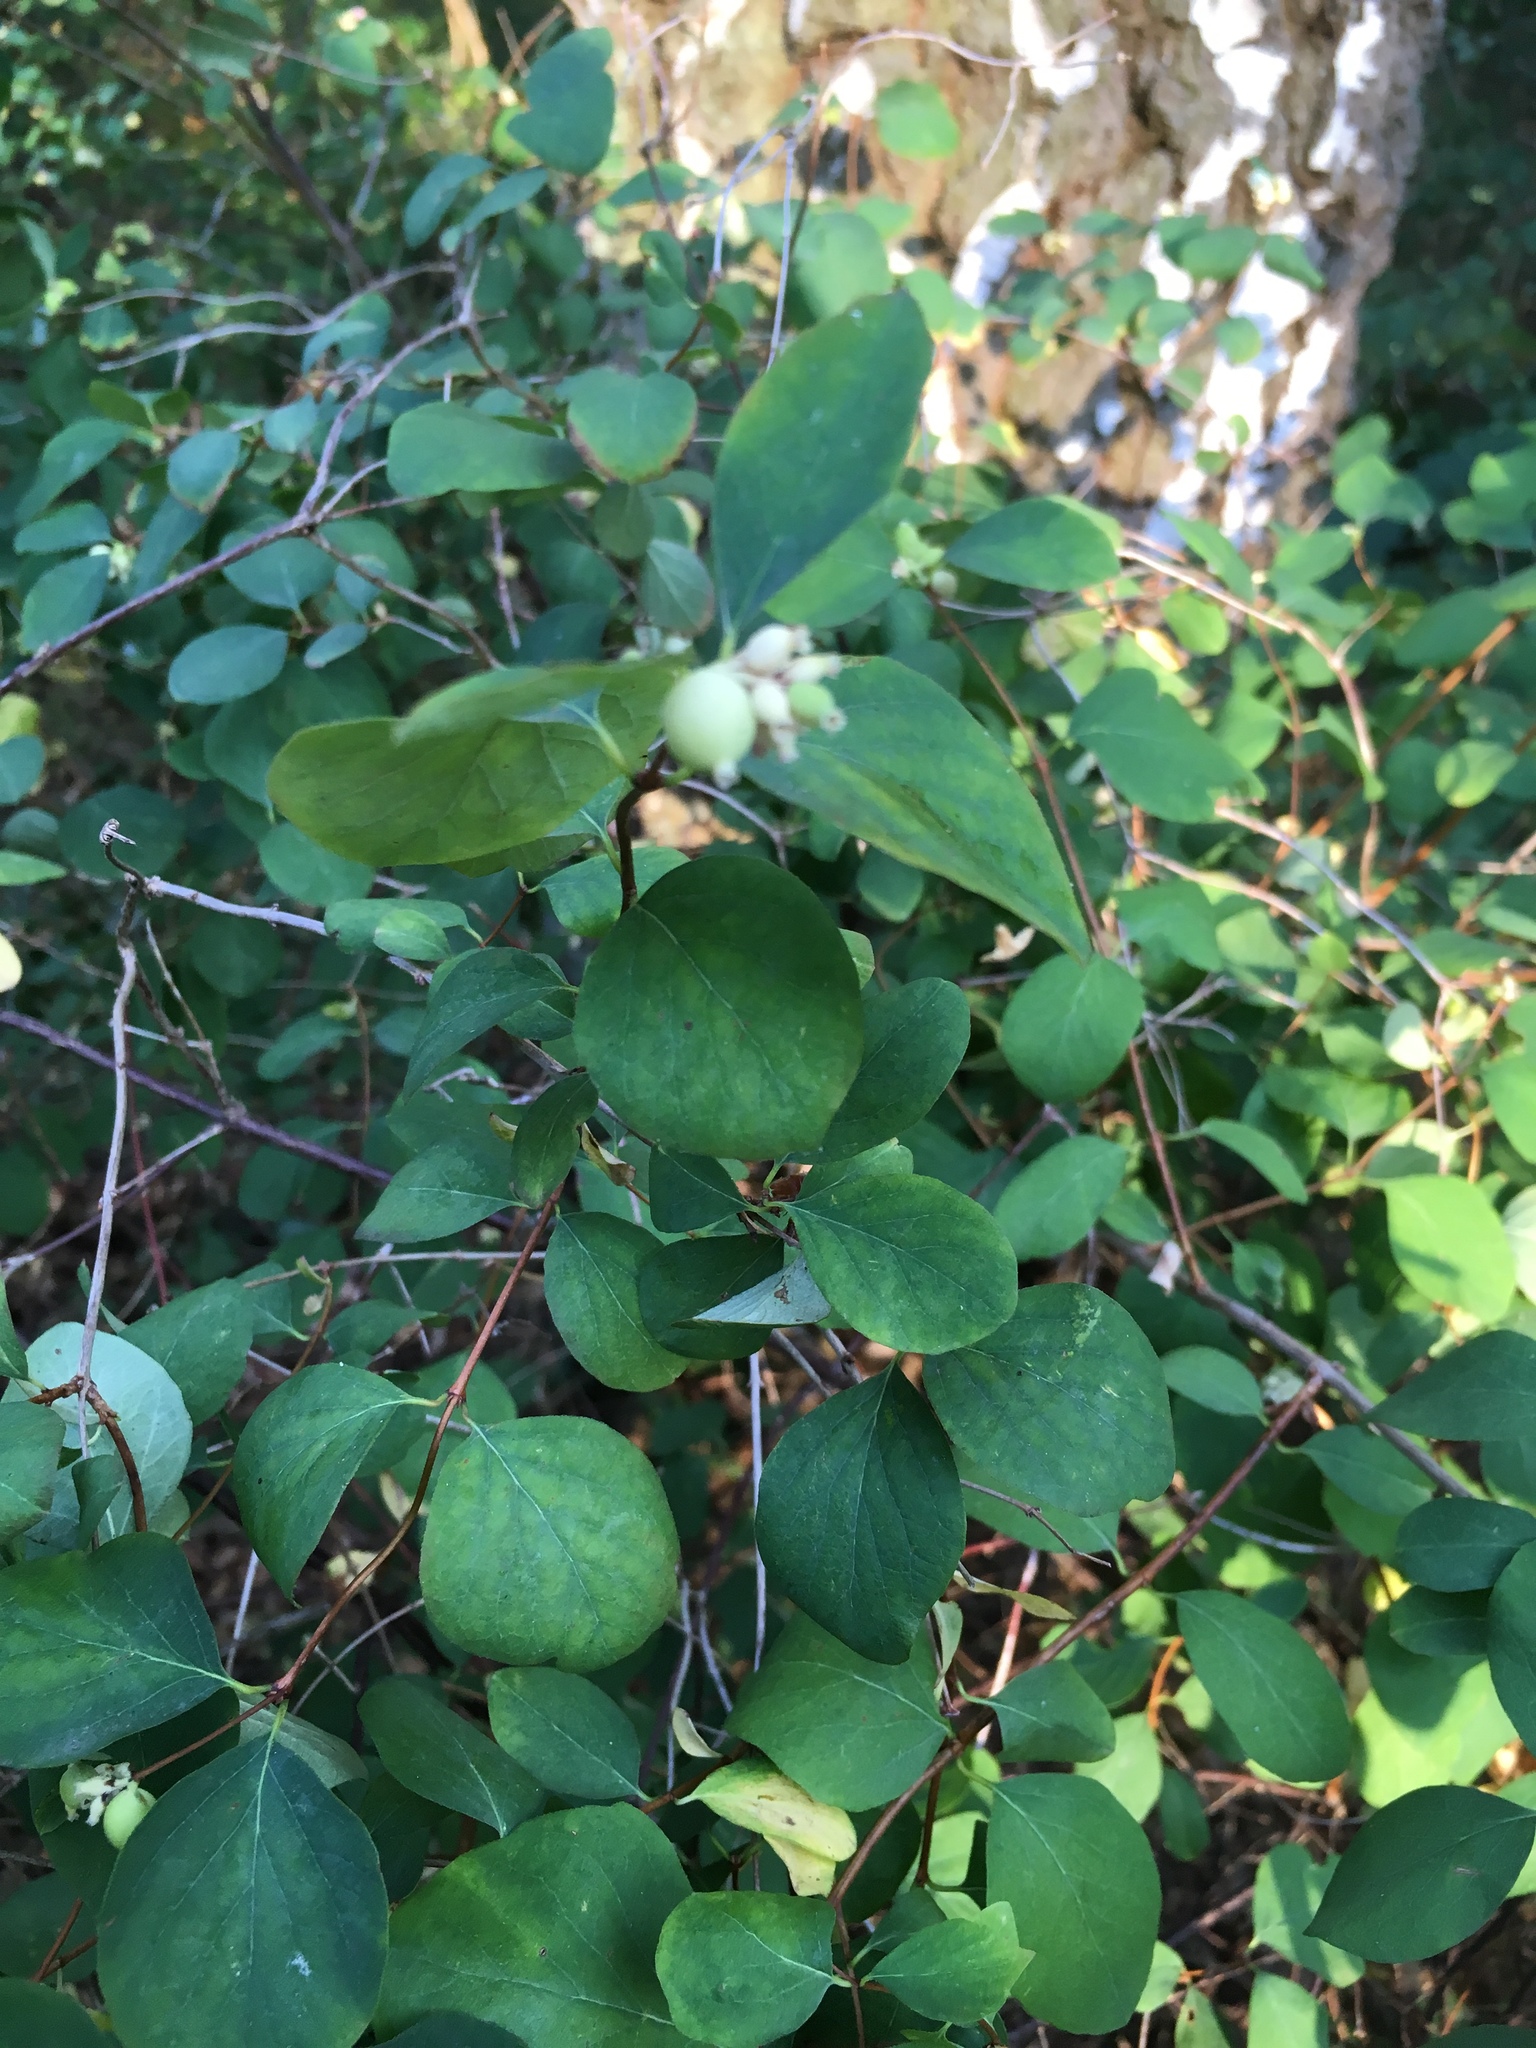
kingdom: Plantae
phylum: Tracheophyta
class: Magnoliopsida
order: Dipsacales
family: Caprifoliaceae
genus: Symphoricarpos
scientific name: Symphoricarpos albus
